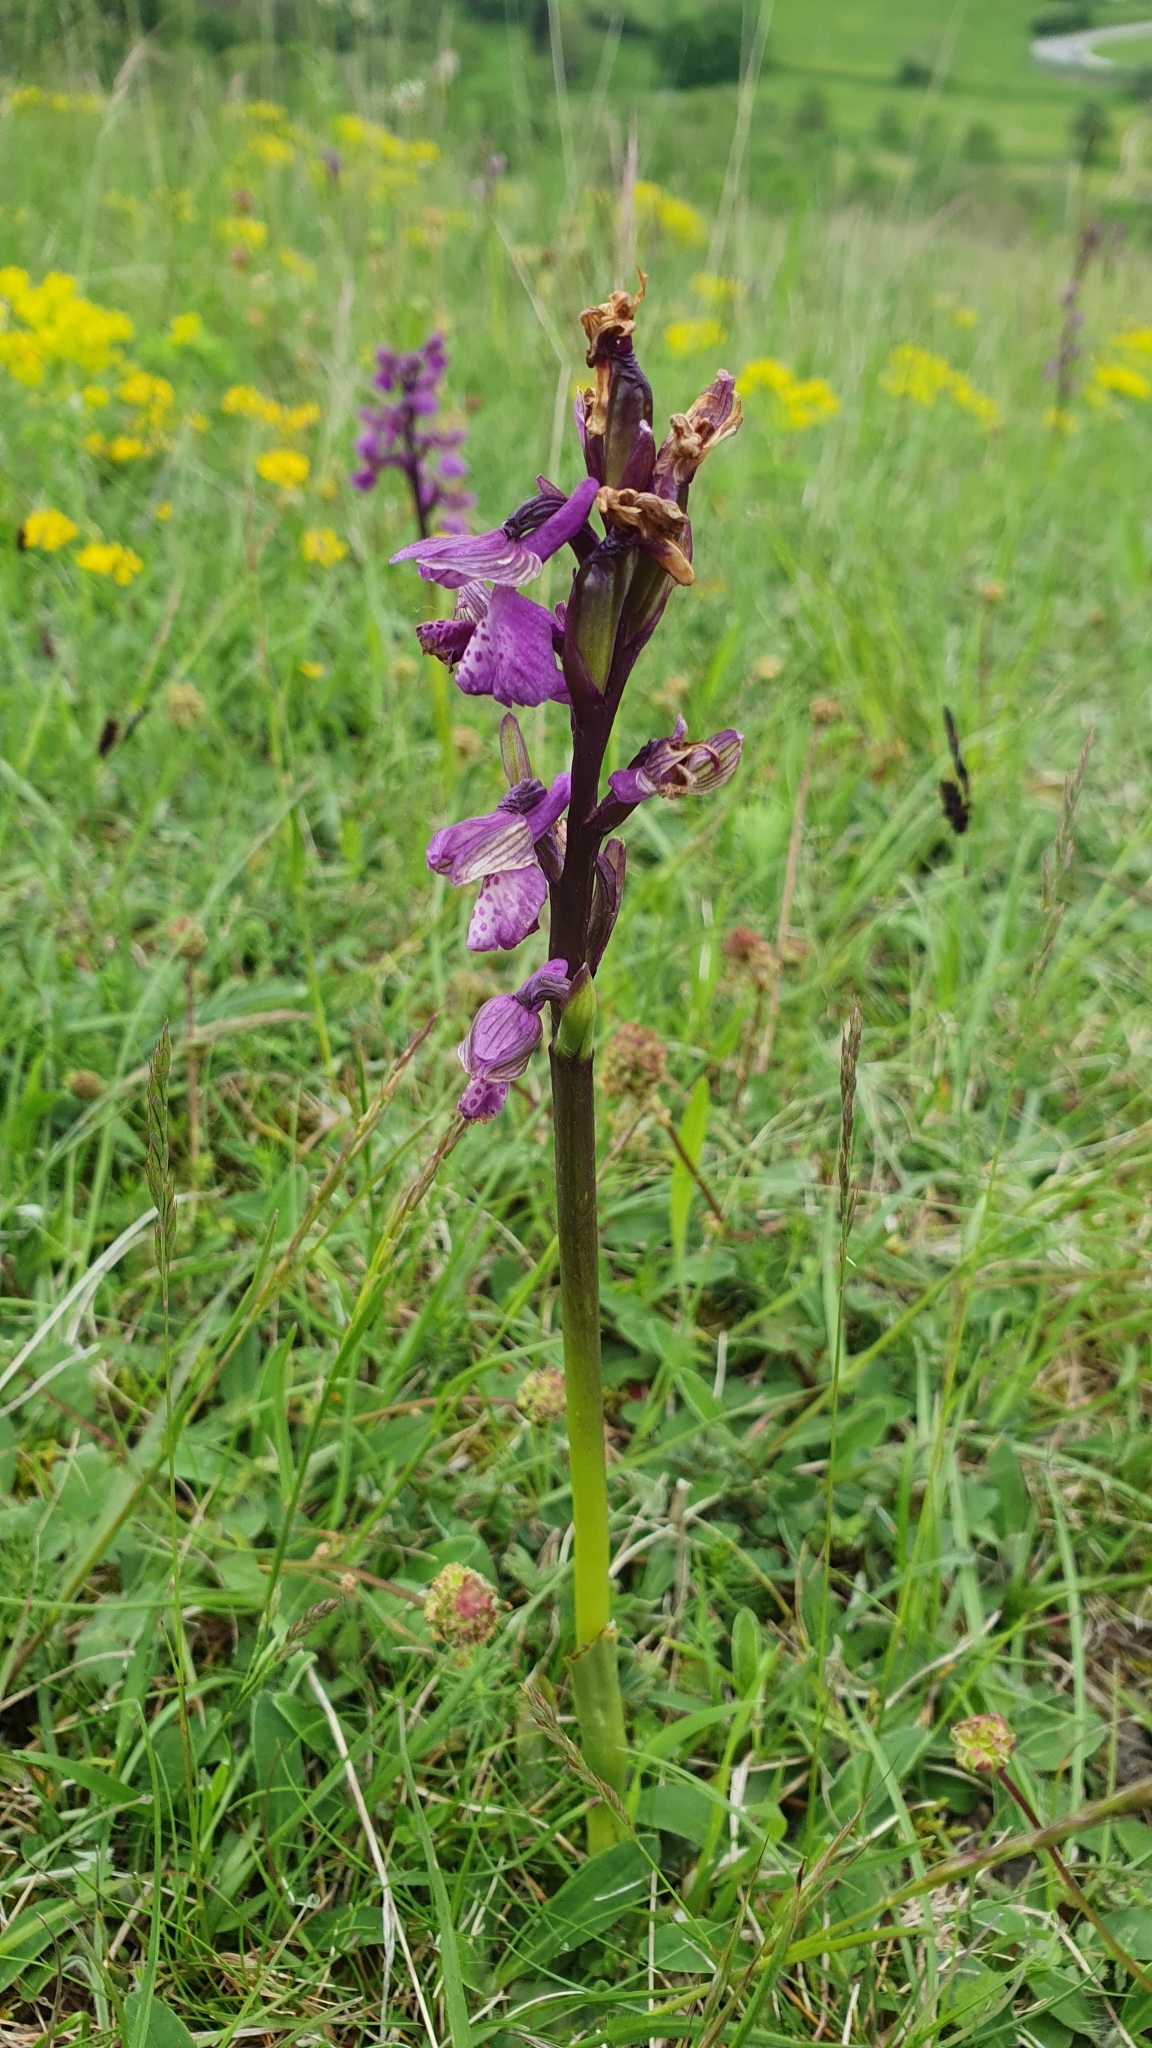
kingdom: Plantae
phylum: Tracheophyta
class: Liliopsida
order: Asparagales
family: Orchidaceae
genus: Anacamptis
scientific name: Anacamptis morio
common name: Green-winged orchid
